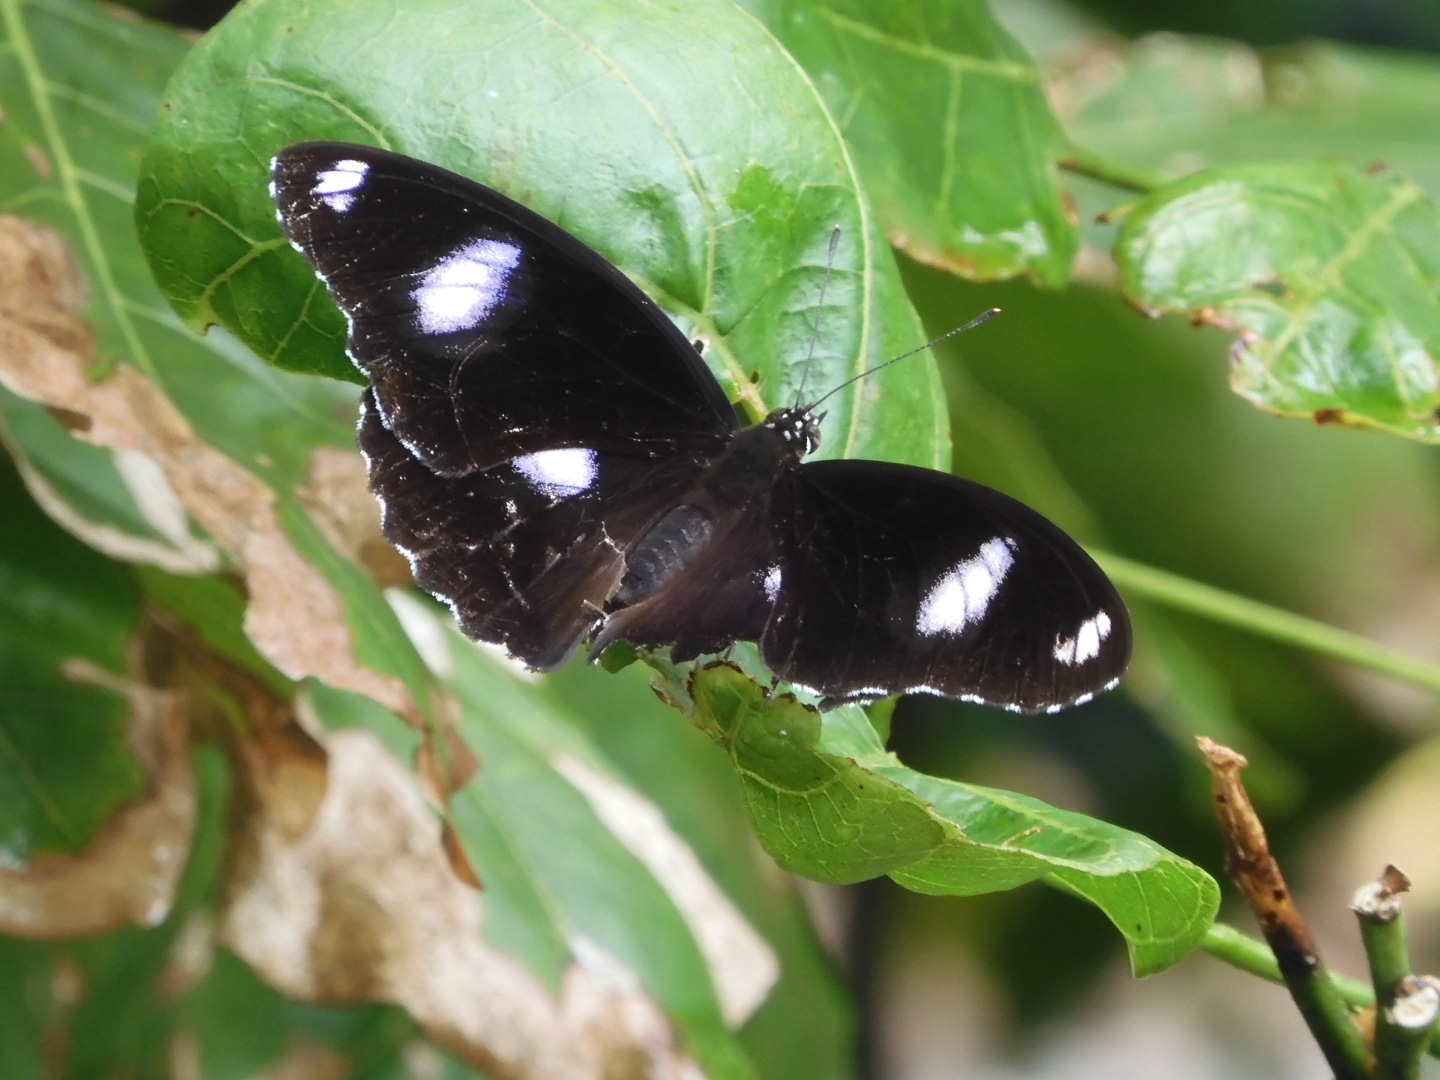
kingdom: Animalia
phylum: Arthropoda
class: Insecta
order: Lepidoptera
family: Nymphalidae
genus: Hypolimnas
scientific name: Hypolimnas bolina
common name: Great eggfly
